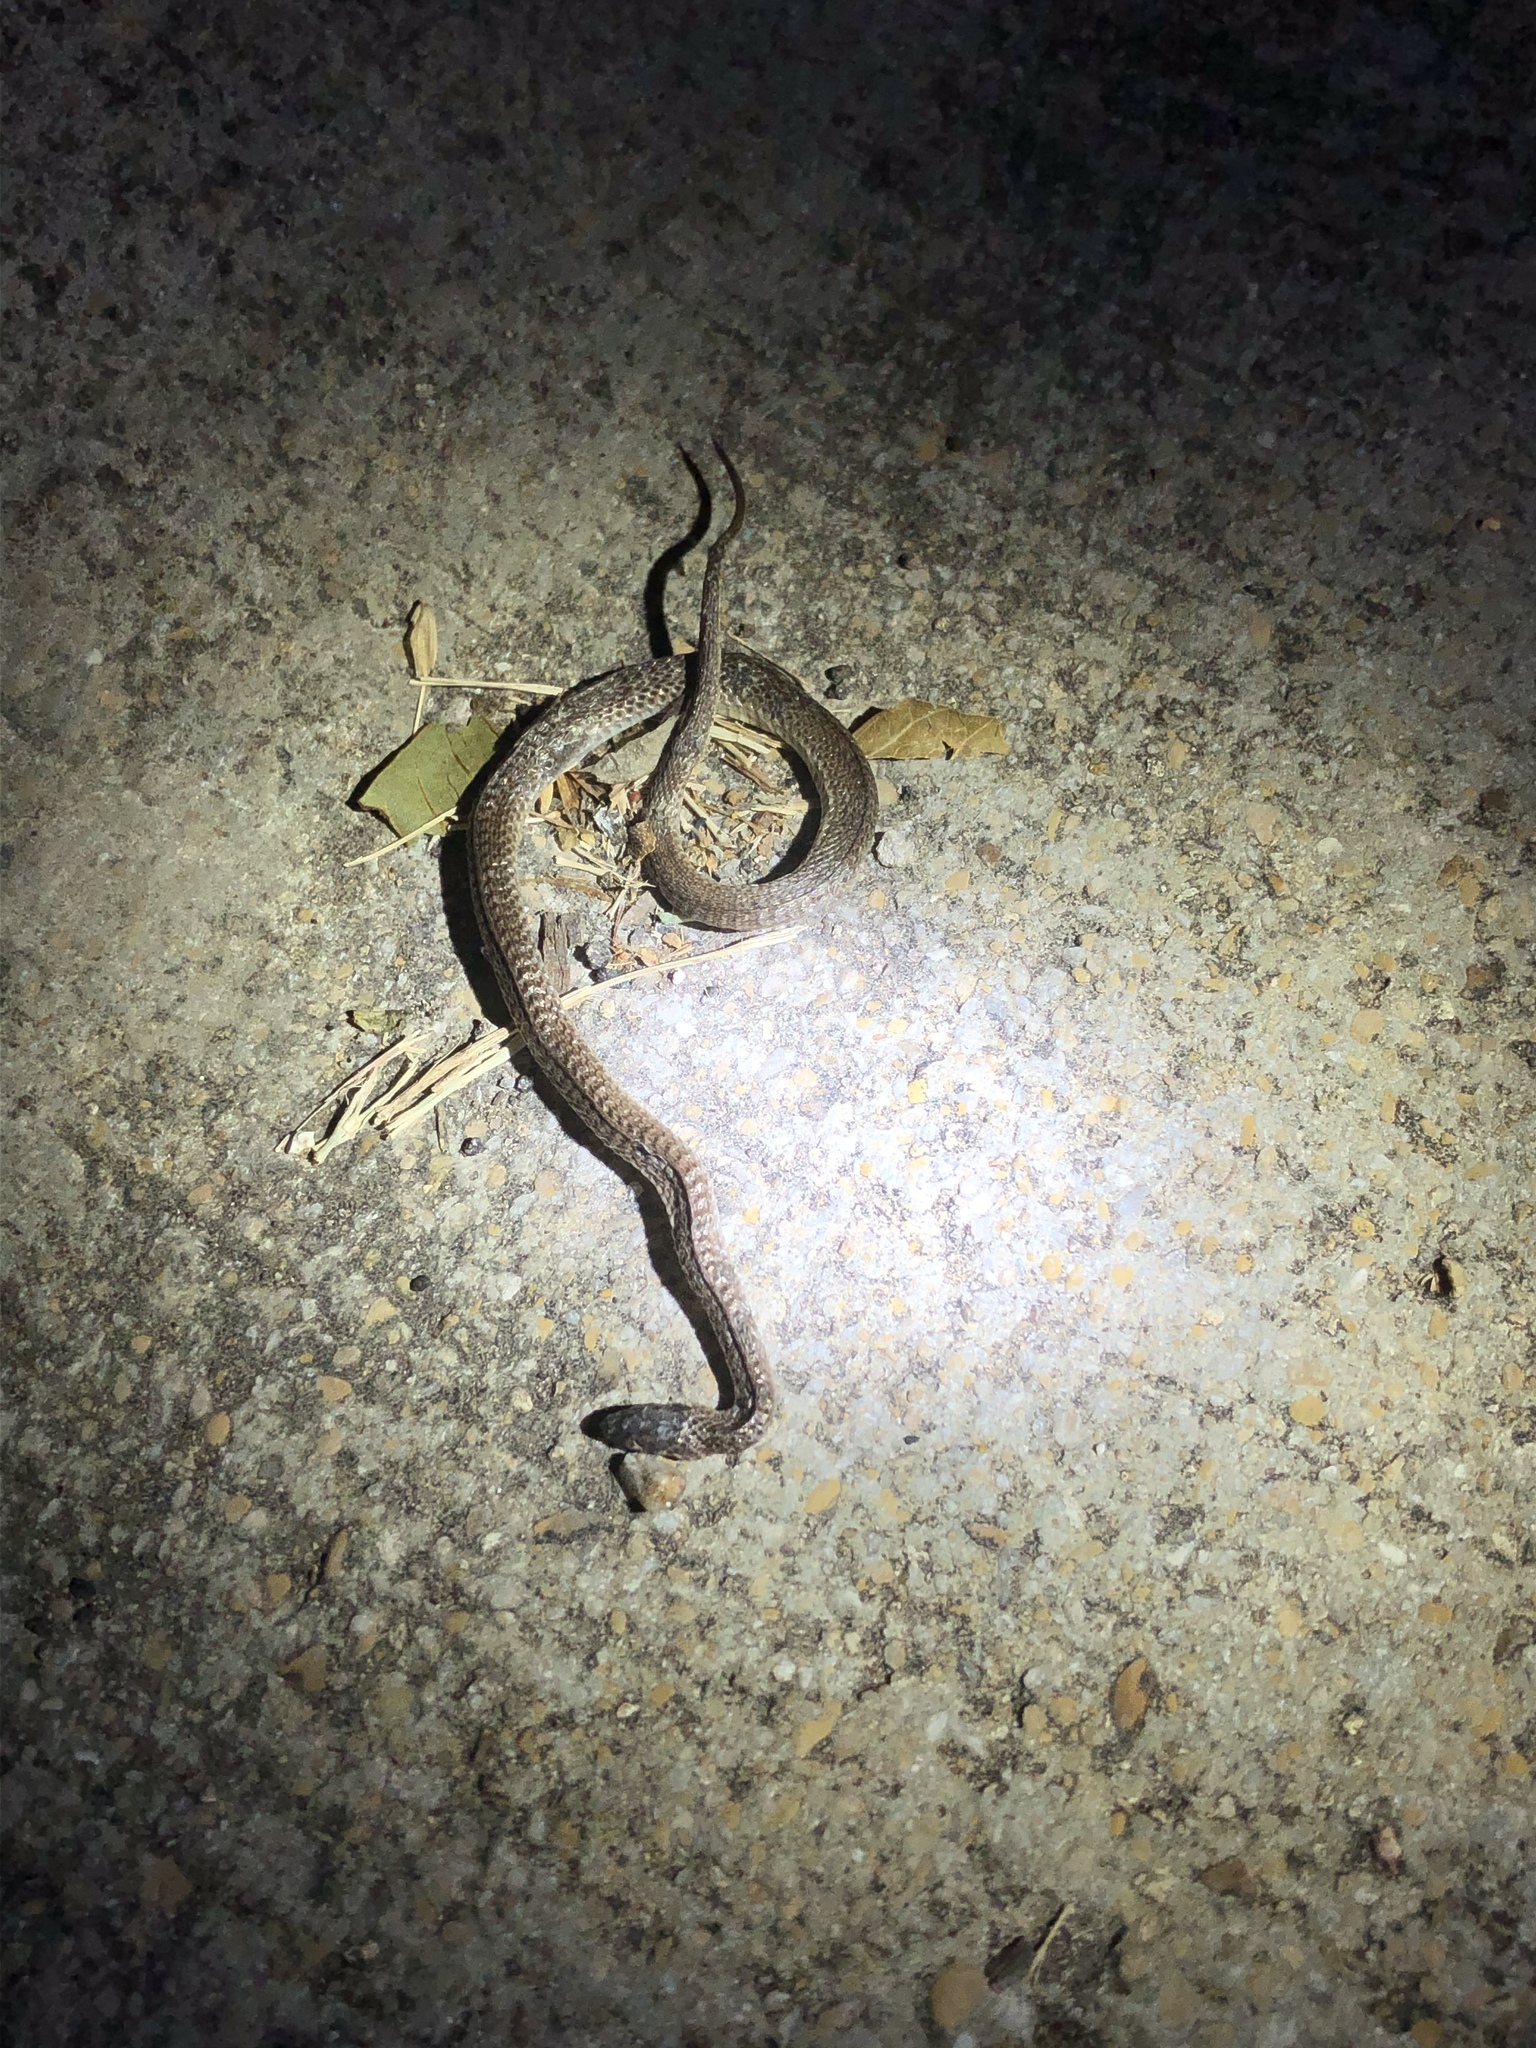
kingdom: Animalia
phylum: Chordata
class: Squamata
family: Colubridae
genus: Storeria
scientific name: Storeria dekayi
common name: (dekay’s) brown snake
